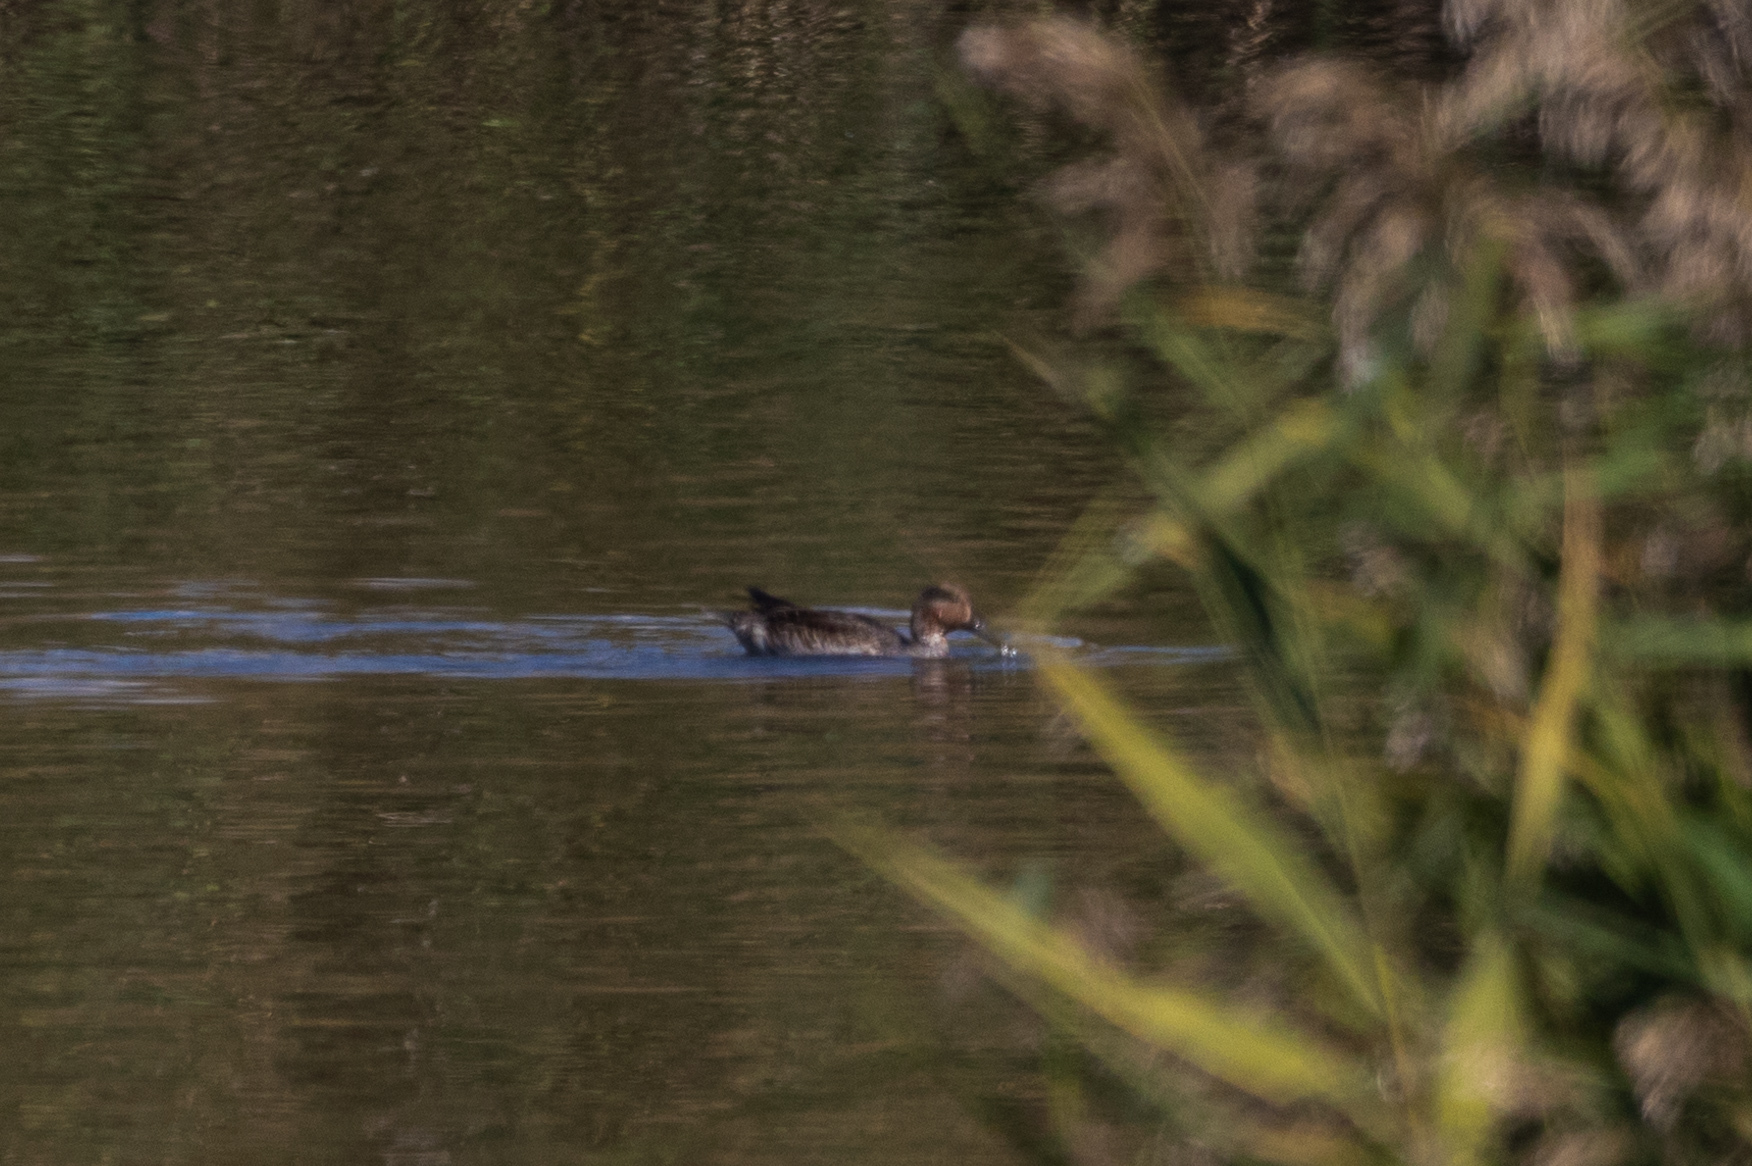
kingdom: Animalia
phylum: Chordata
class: Aves
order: Anseriformes
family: Anatidae
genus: Anas
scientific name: Anas crecca
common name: Eurasian teal
